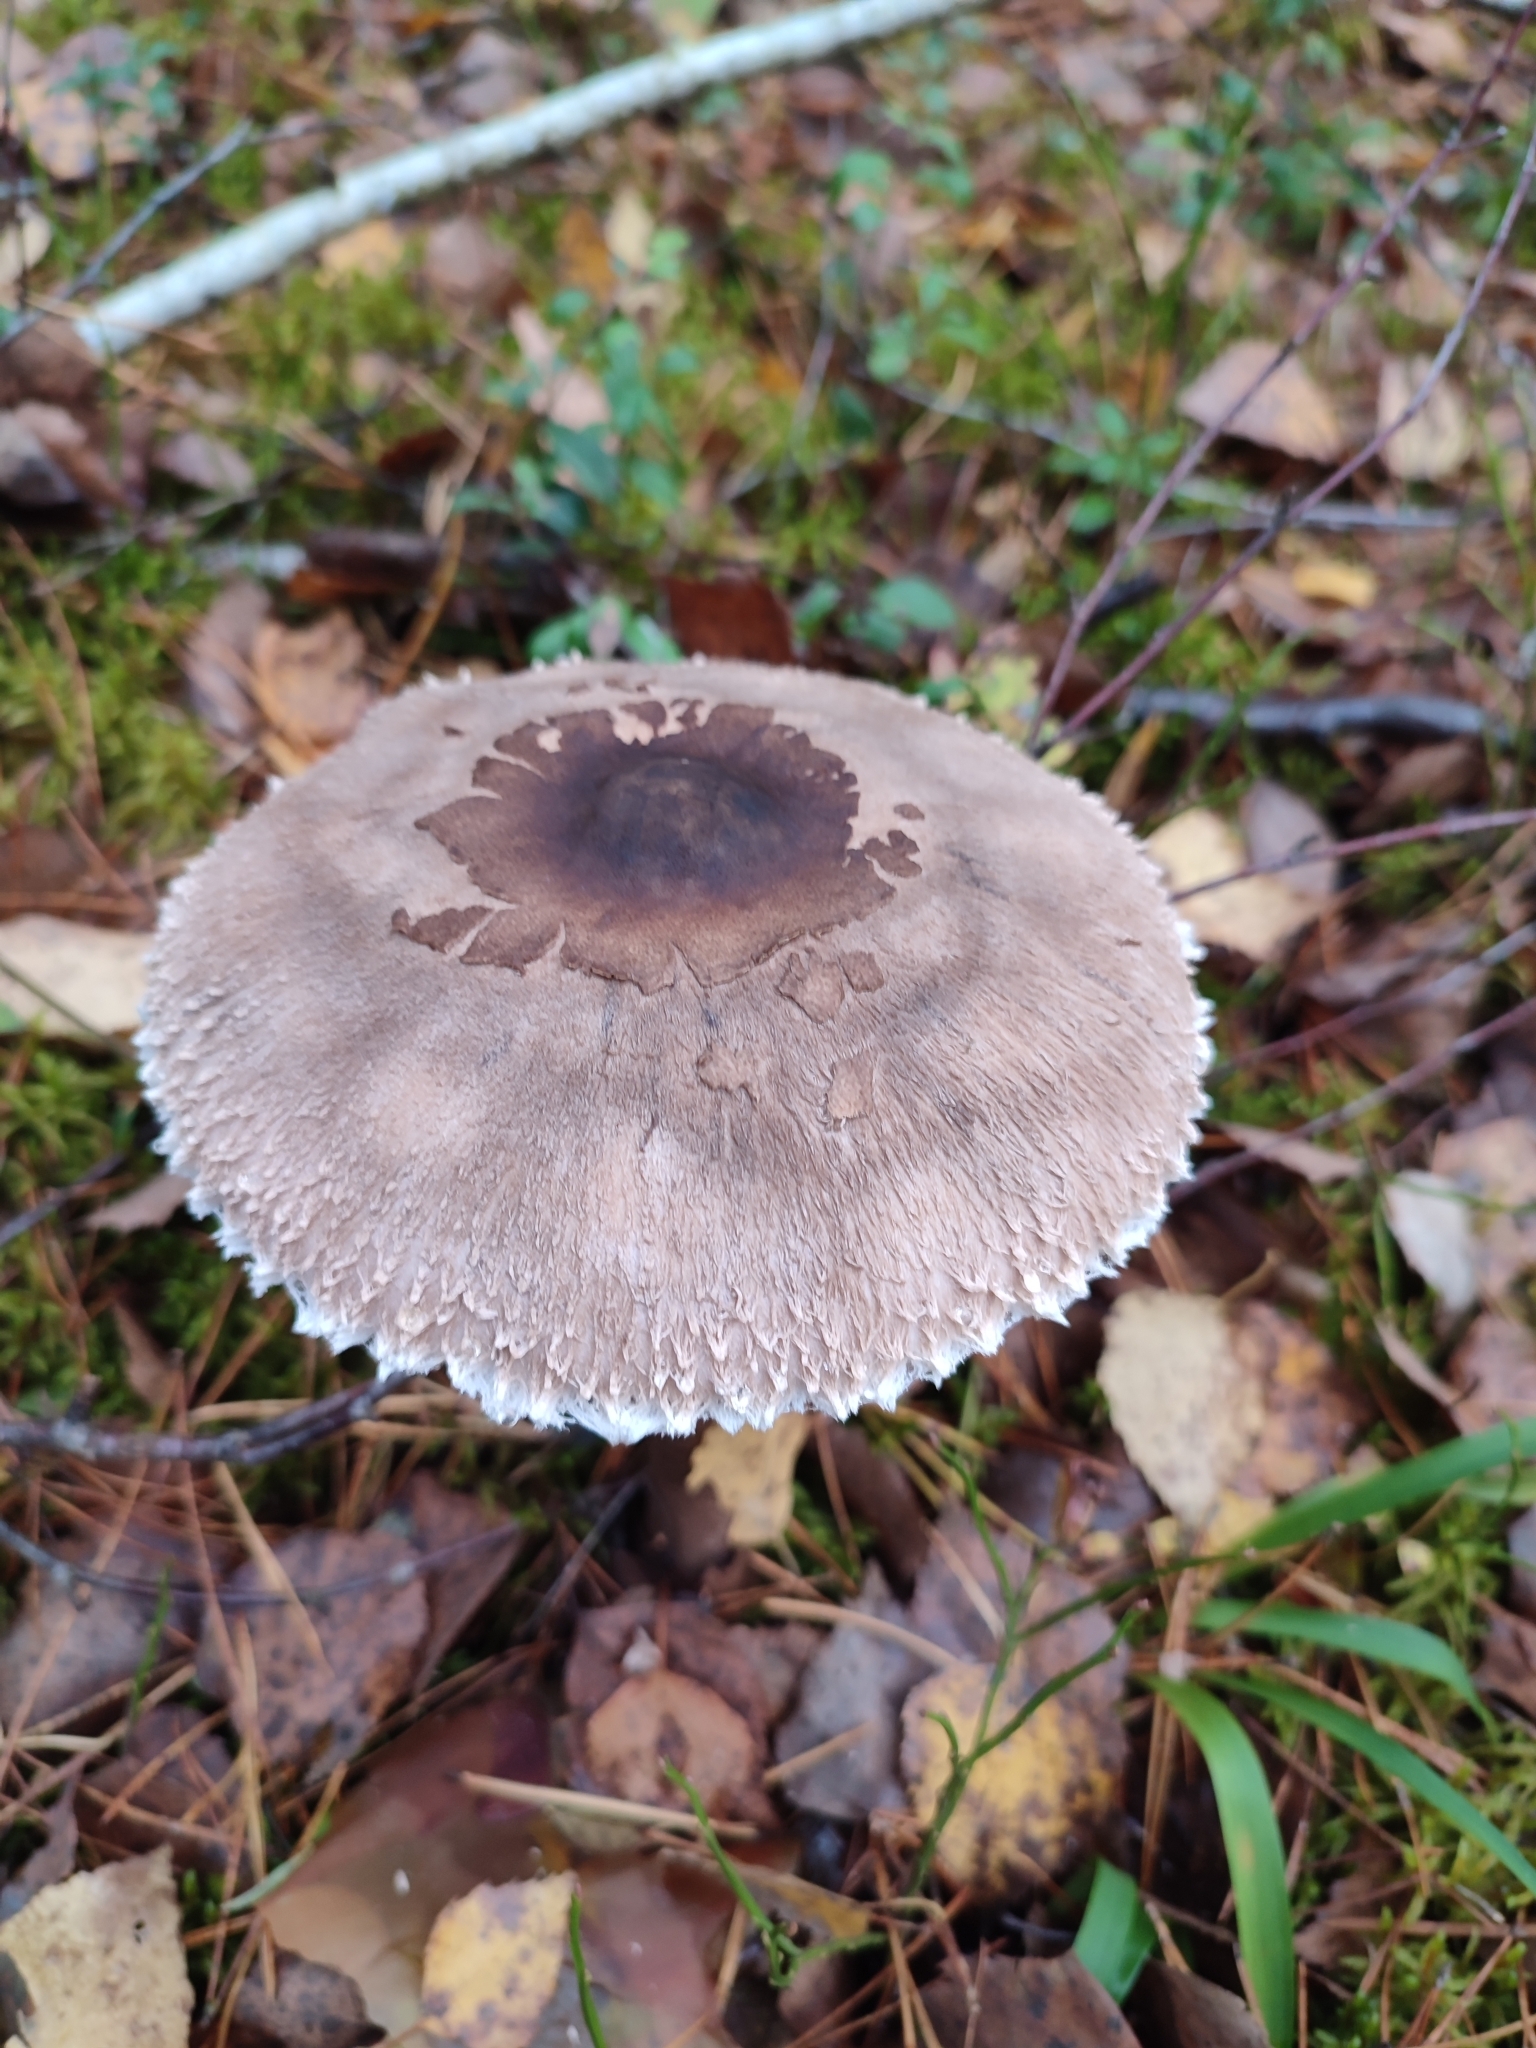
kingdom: Fungi
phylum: Basidiomycota
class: Agaricomycetes
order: Agaricales
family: Agaricaceae
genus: Macrolepiota
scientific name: Macrolepiota procera
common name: Parasol
